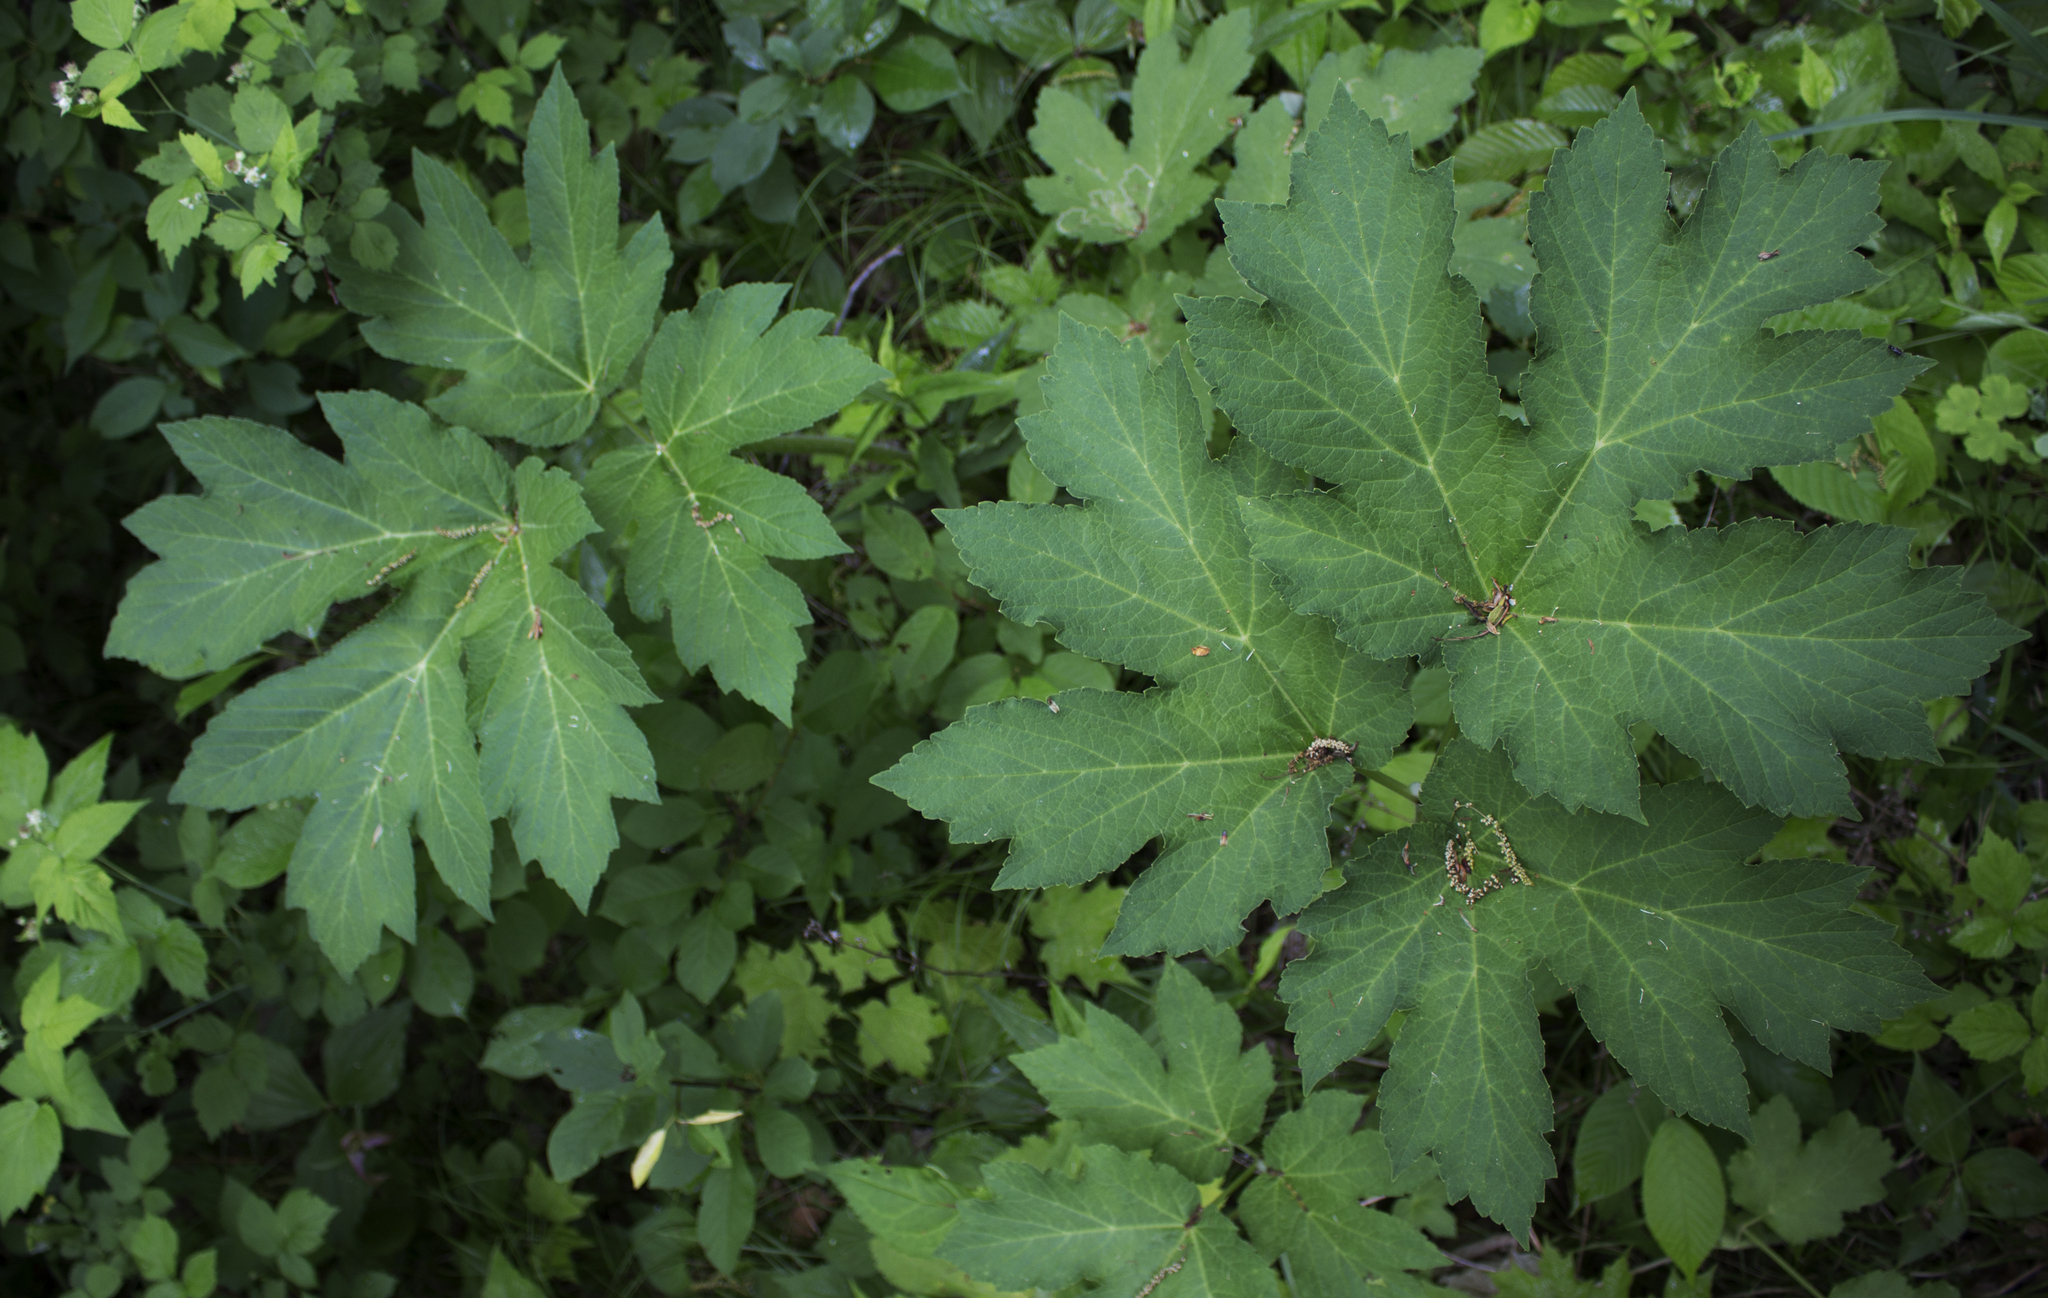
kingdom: Plantae
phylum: Tracheophyta
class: Magnoliopsida
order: Apiales
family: Apiaceae
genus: Heracleum
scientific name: Heracleum maximum
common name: American cow parsnip
